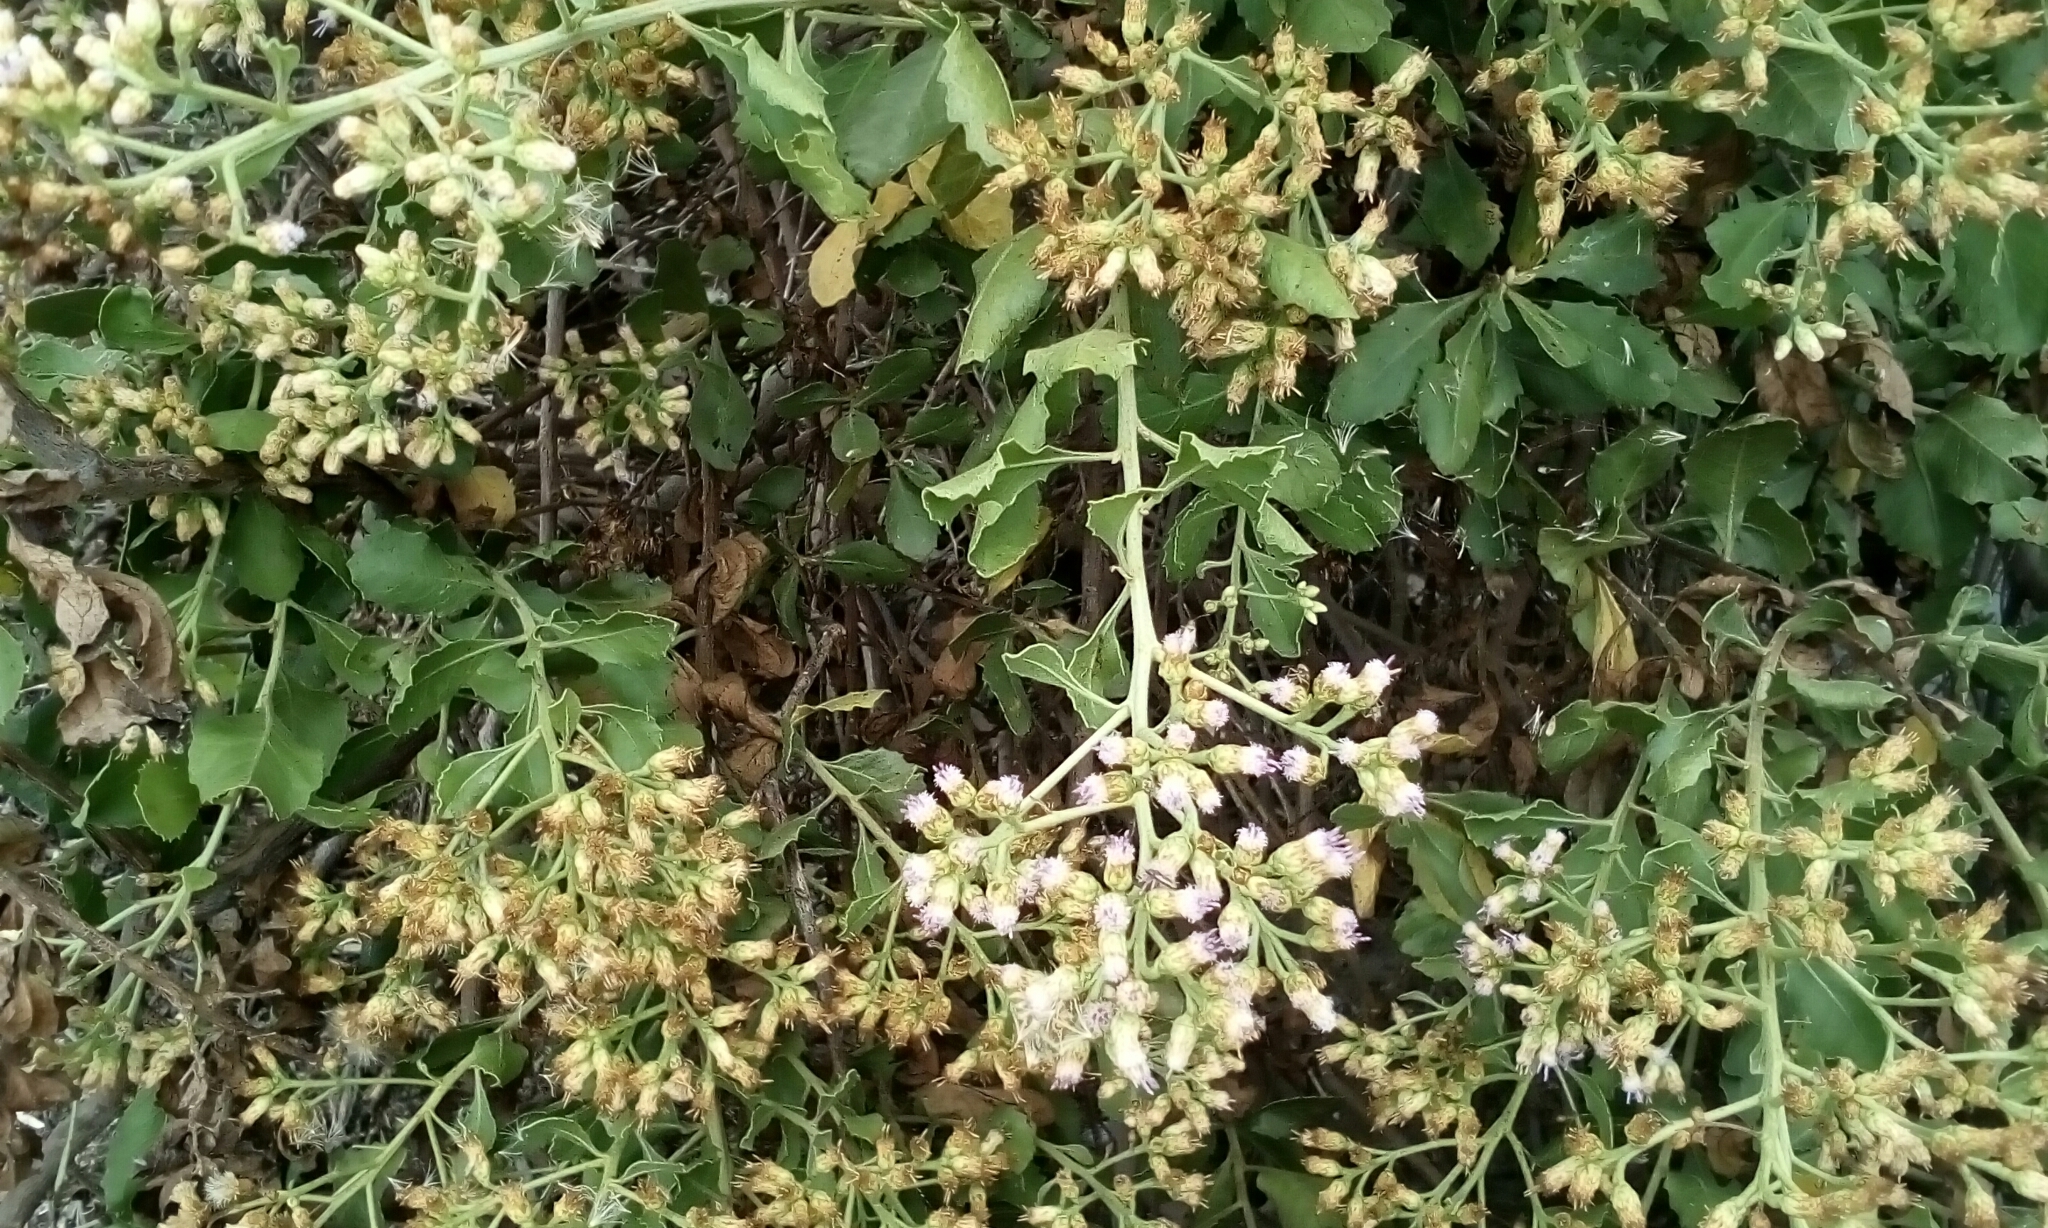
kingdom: Plantae
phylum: Tracheophyta
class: Magnoliopsida
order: Asterales
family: Asteraceae
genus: Pluchea
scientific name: Pluchea indica
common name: Indian fleabane
